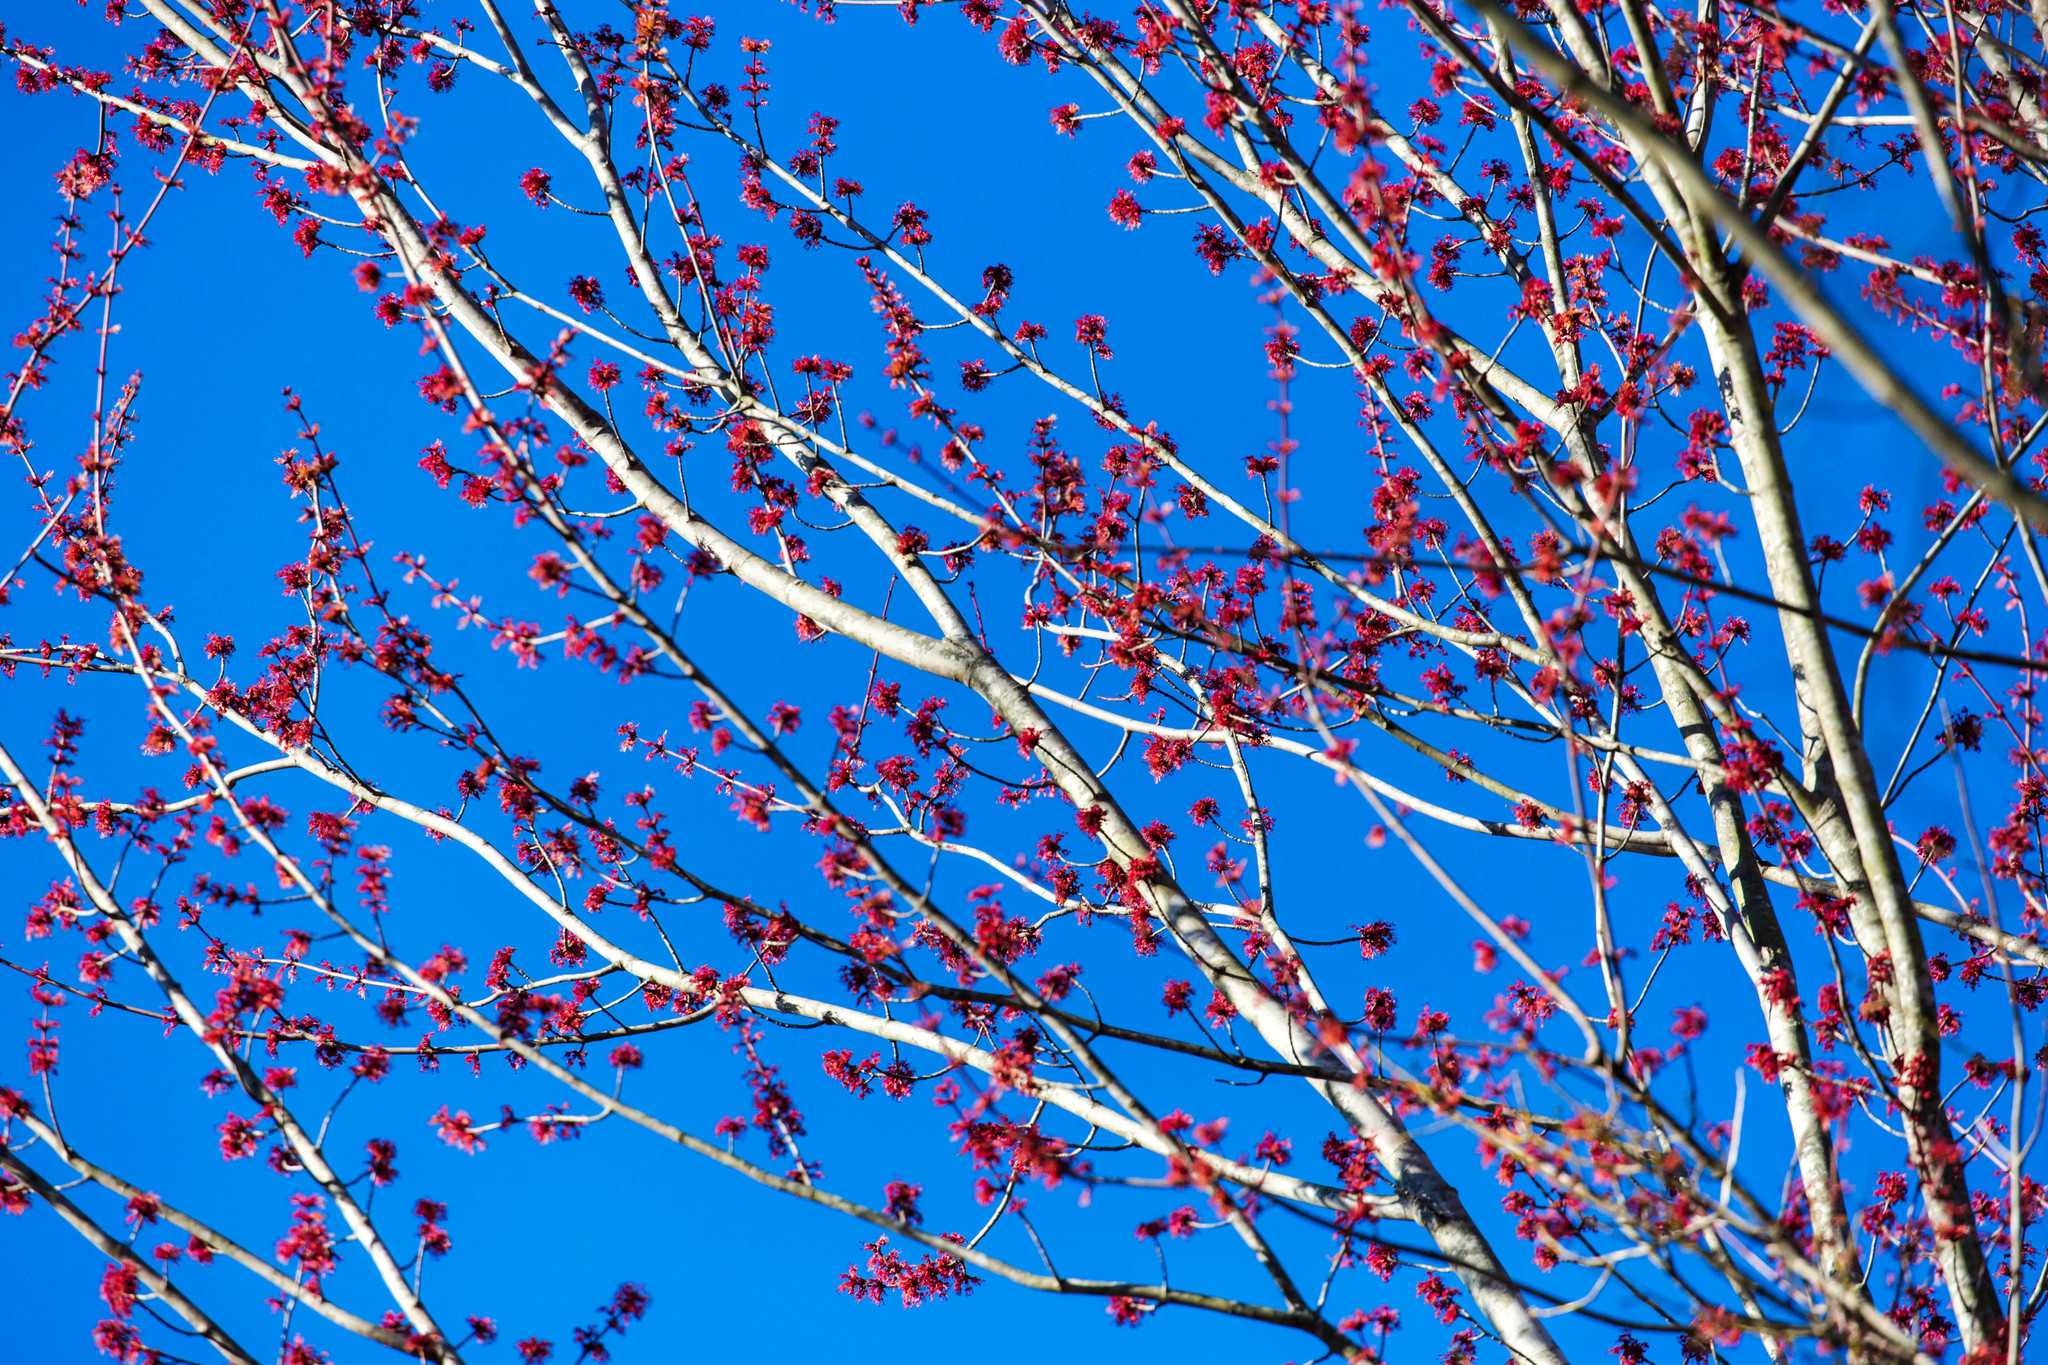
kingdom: Plantae
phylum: Tracheophyta
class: Magnoliopsida
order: Sapindales
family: Sapindaceae
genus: Acer
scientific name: Acer rubrum
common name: Red maple
